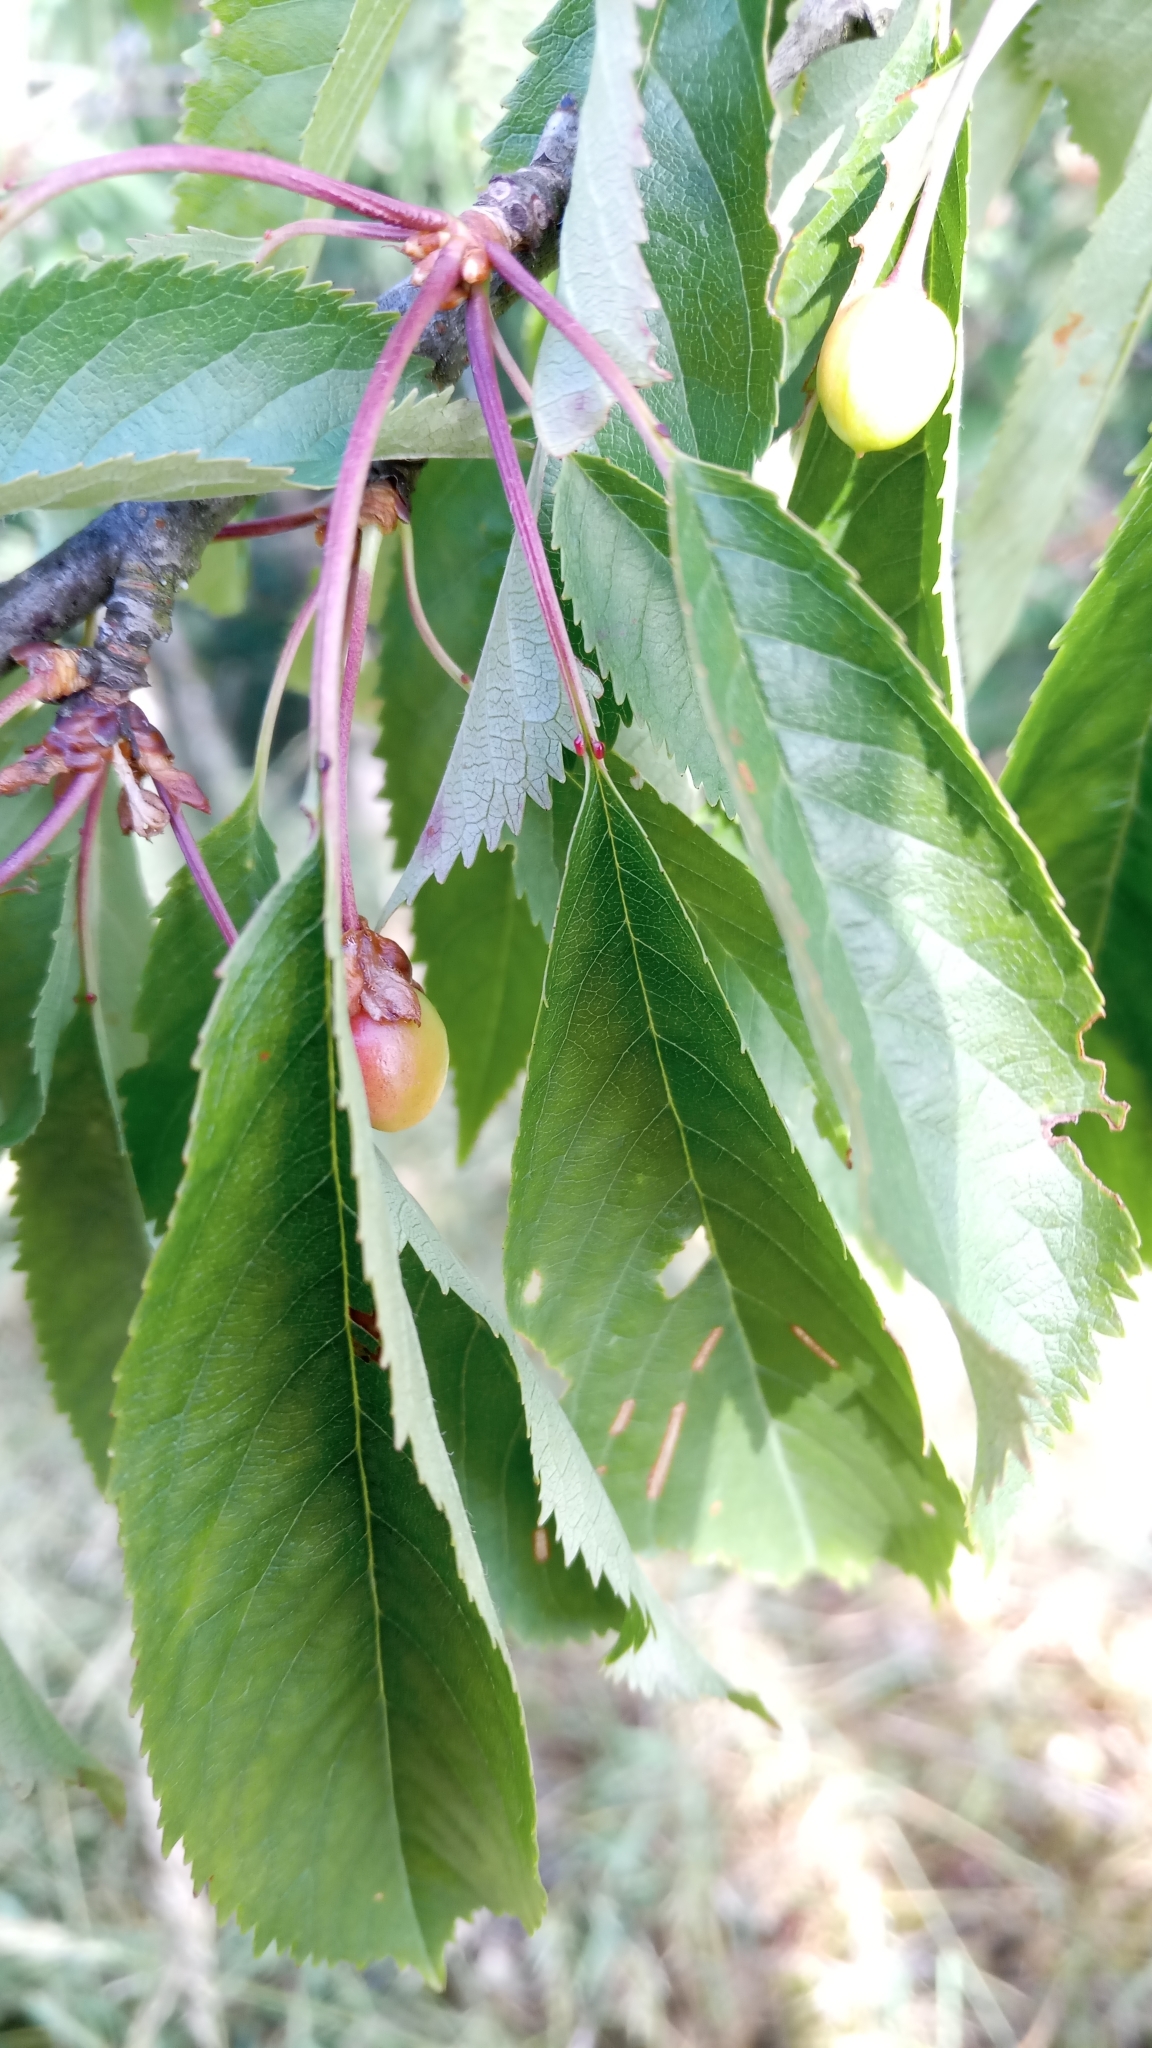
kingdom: Plantae
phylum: Tracheophyta
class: Magnoliopsida
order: Rosales
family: Rosaceae
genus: Prunus
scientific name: Prunus avium
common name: Sweet cherry
